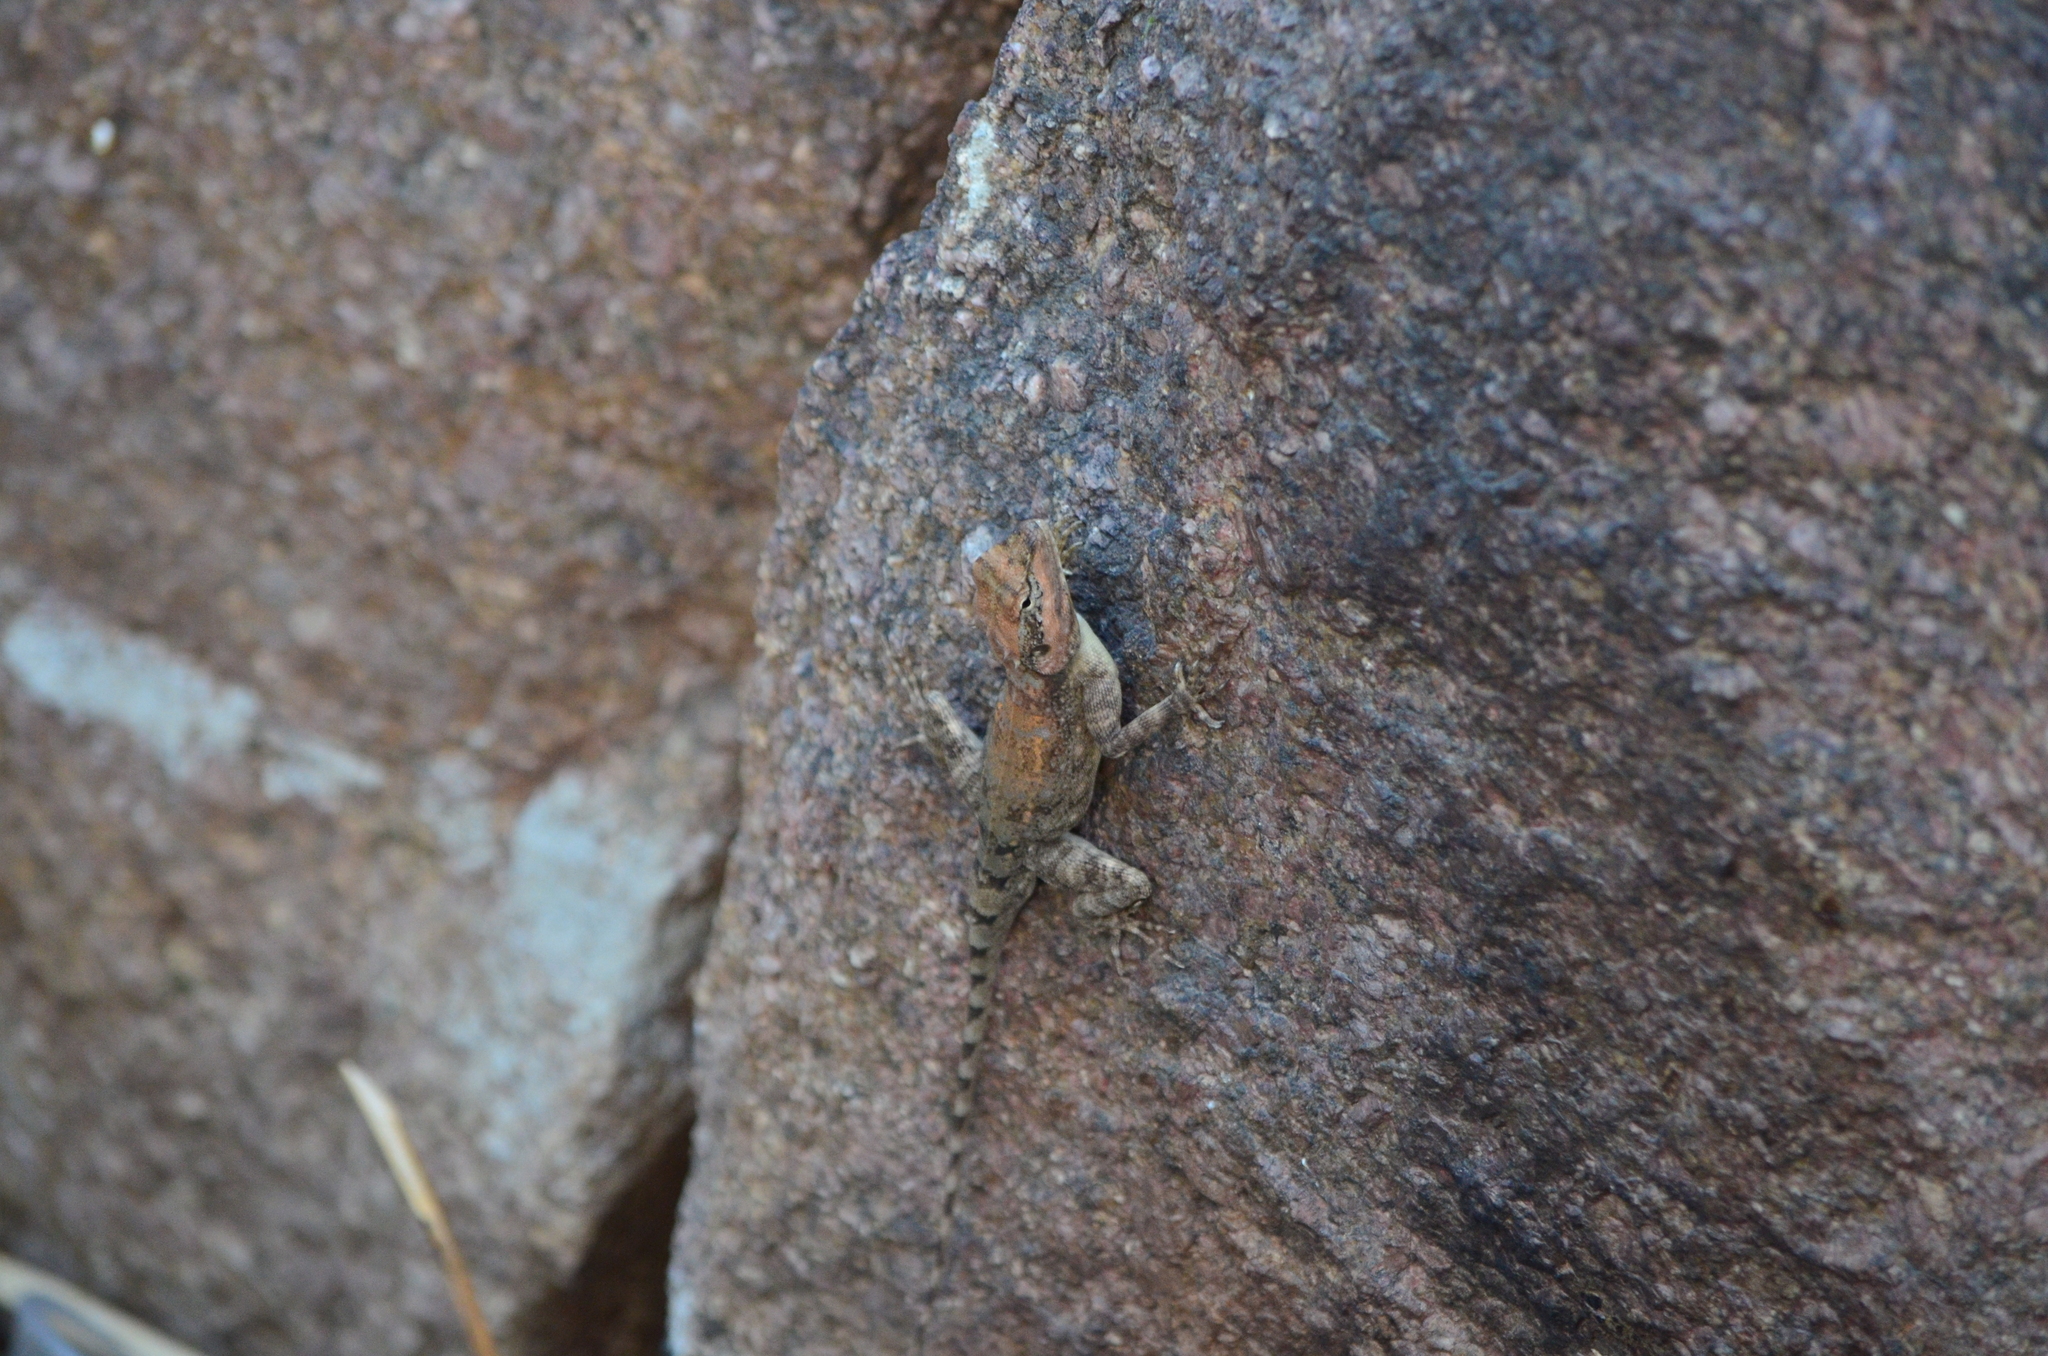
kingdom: Animalia
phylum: Chordata
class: Squamata
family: Agamidae
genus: Psammophilus
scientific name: Psammophilus dorsalis
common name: South indian rock agama
